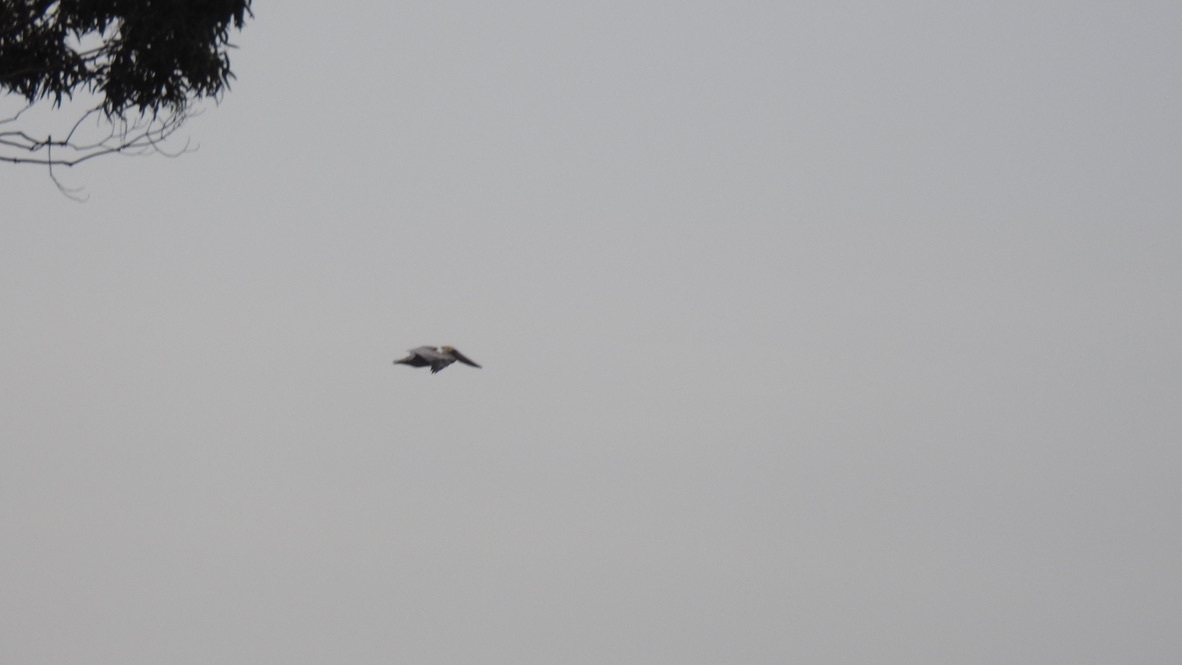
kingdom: Animalia
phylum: Chordata
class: Aves
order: Pelecaniformes
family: Pelecanidae
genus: Pelecanus
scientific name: Pelecanus erythrorhynchos
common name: American white pelican
